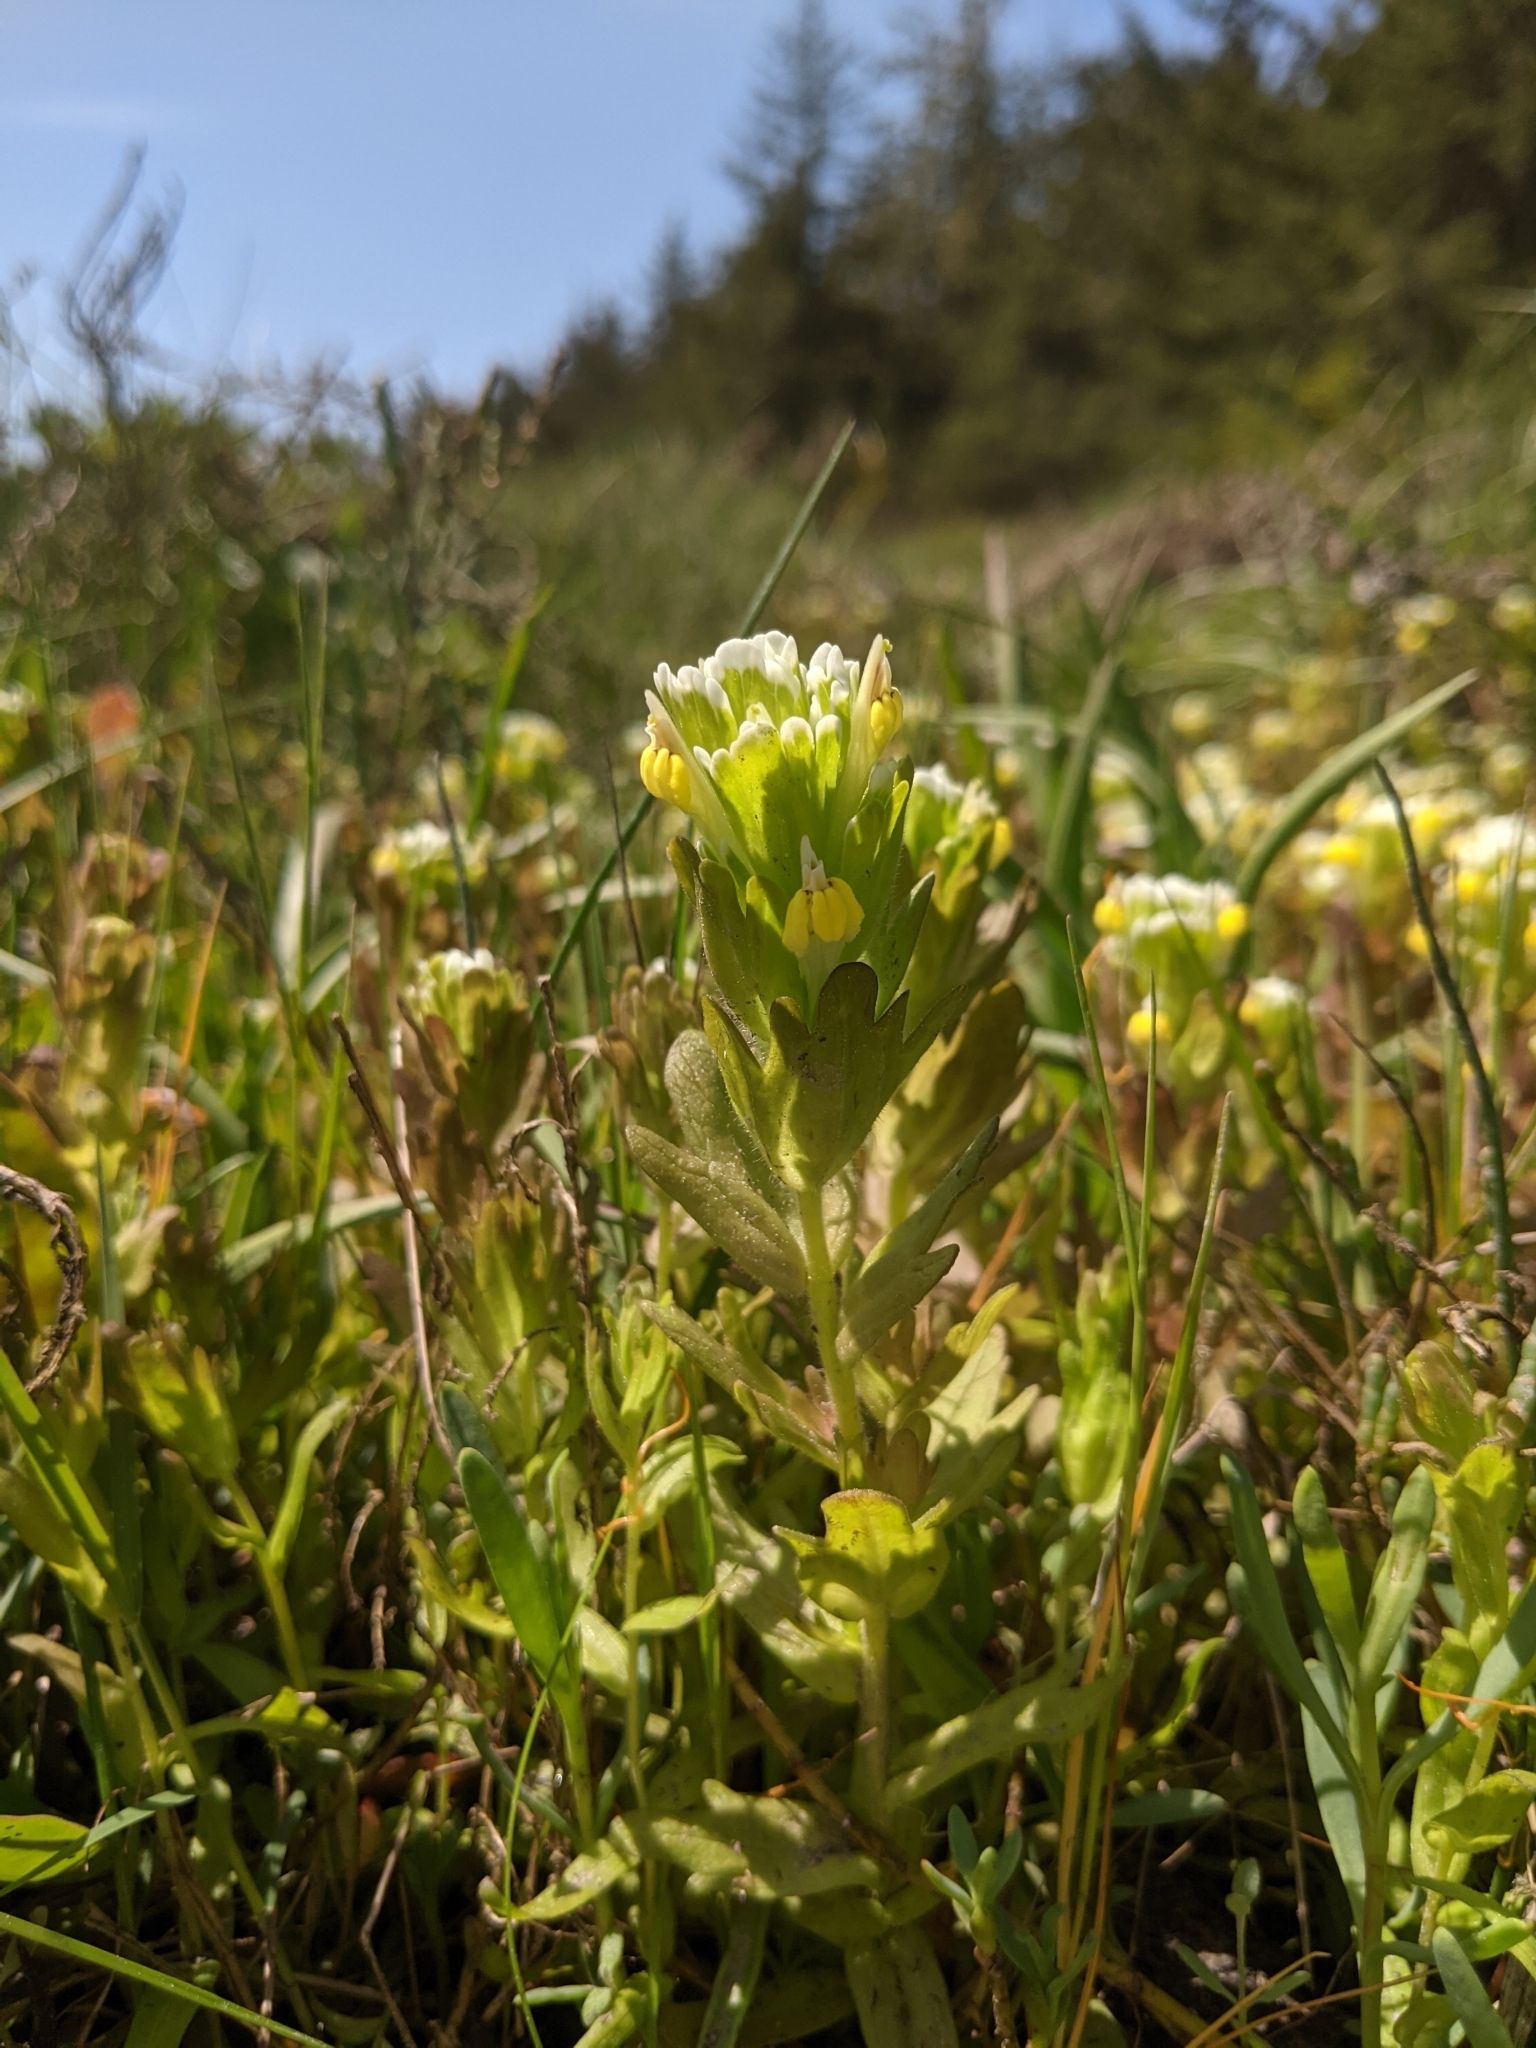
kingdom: Plantae
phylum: Tracheophyta
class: Magnoliopsida
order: Lamiales
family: Orobanchaceae
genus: Castilleja
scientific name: Castilleja ambigua
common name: Johnny-nip
